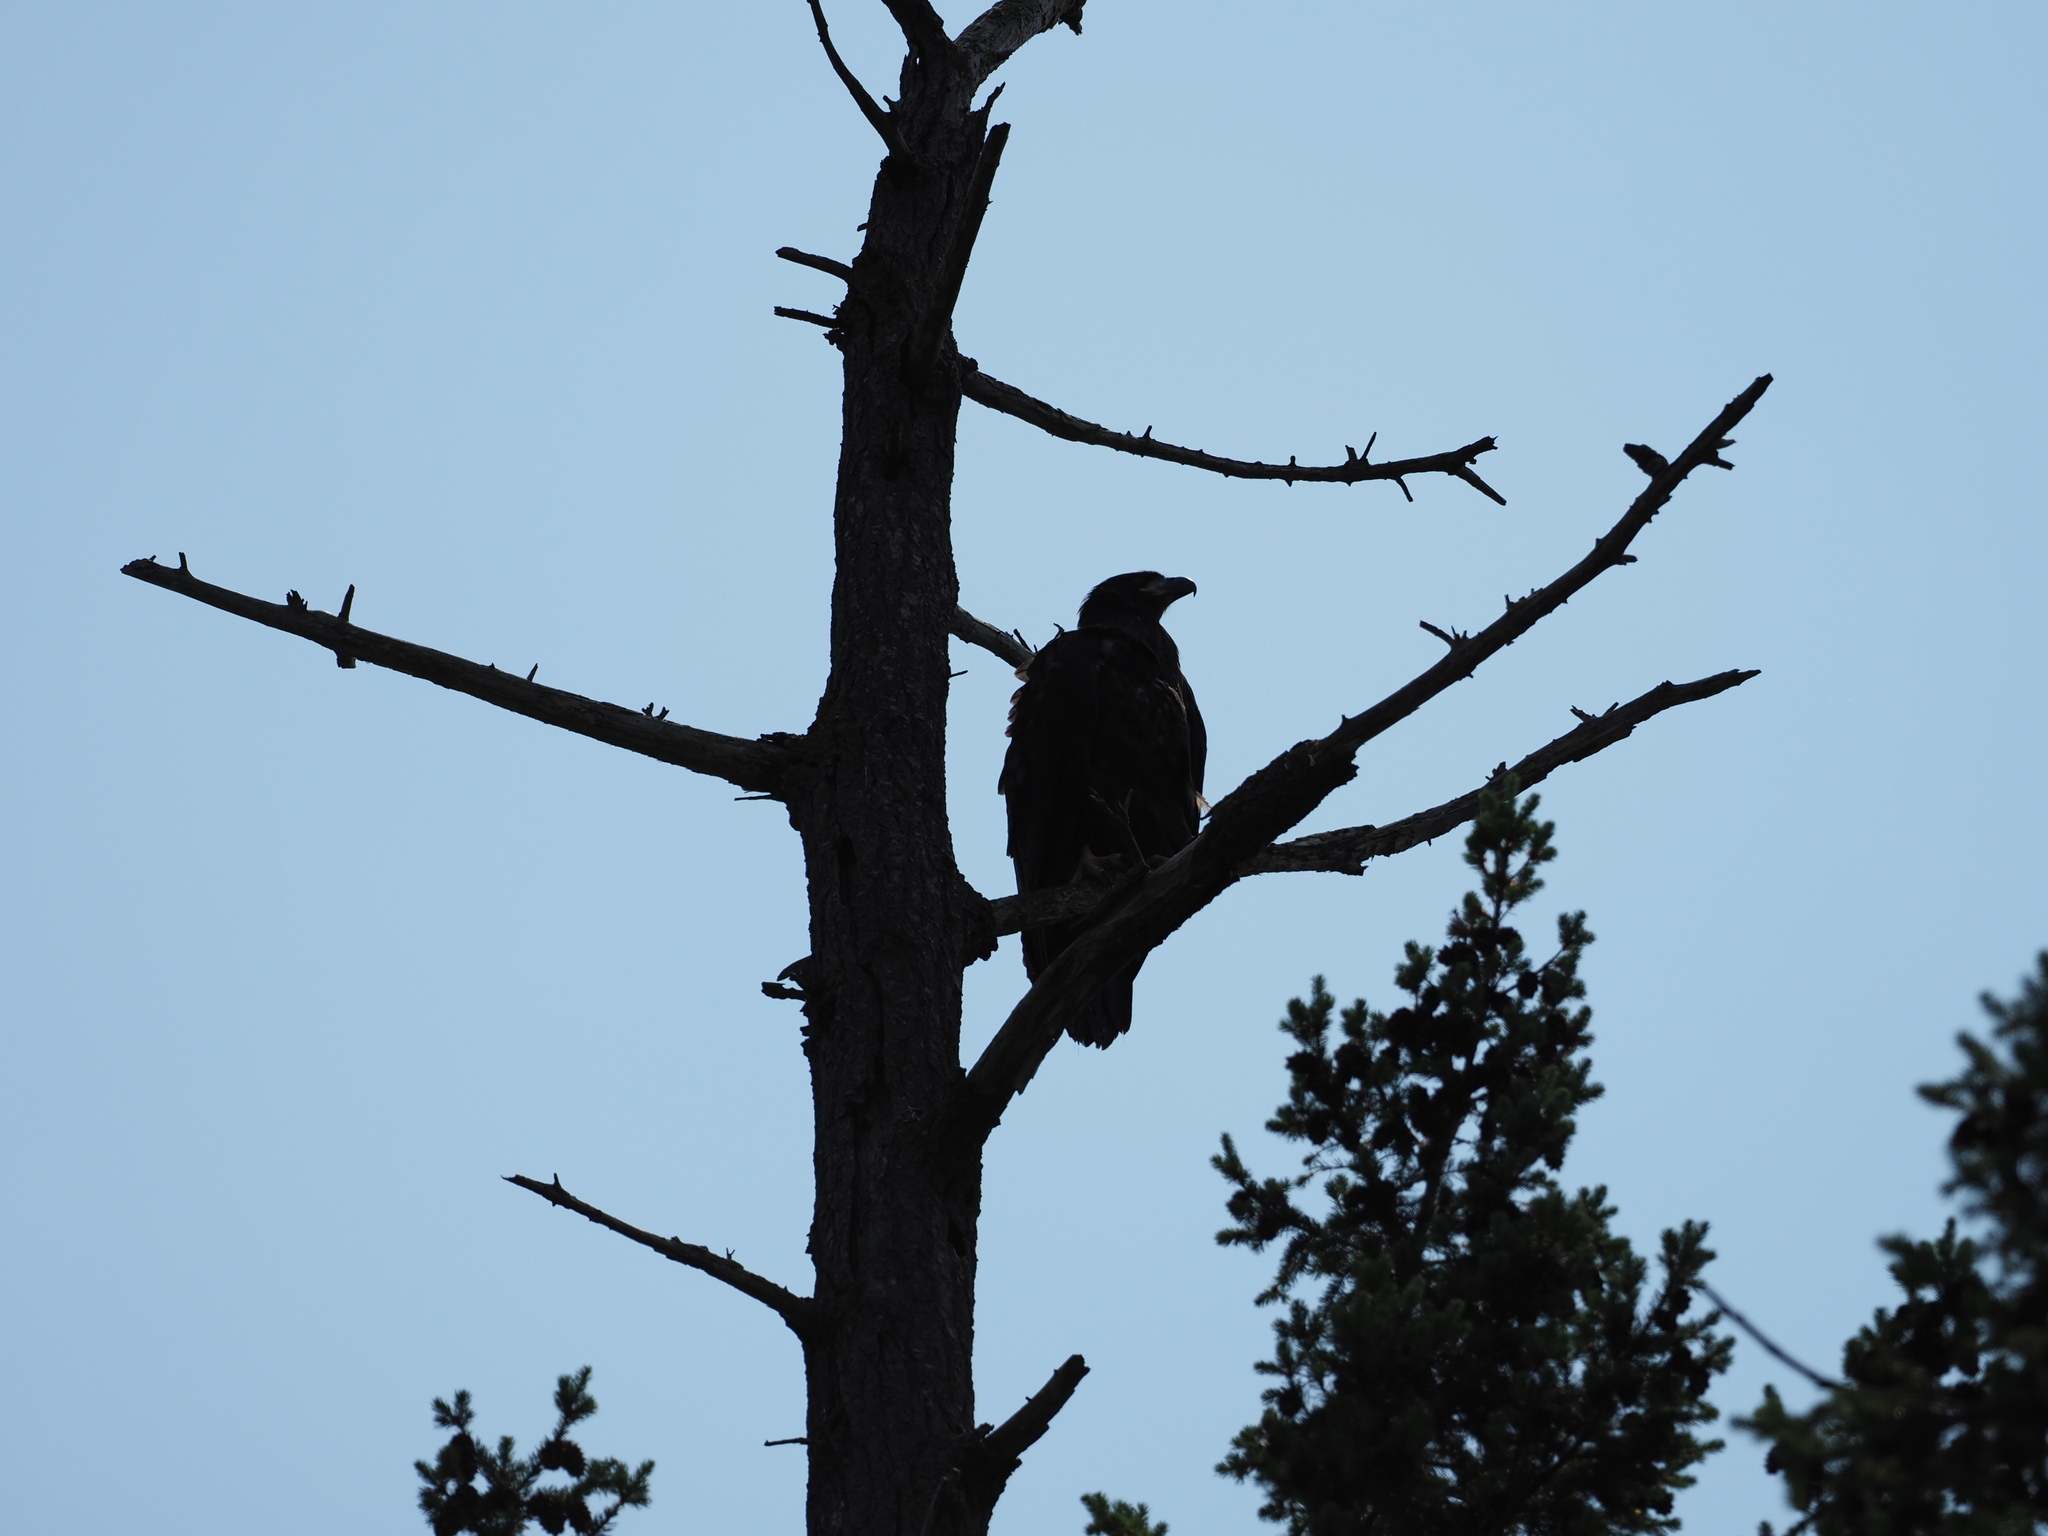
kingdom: Animalia
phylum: Chordata
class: Aves
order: Accipitriformes
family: Accipitridae
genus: Haliaeetus
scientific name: Haliaeetus leucocephalus
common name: Bald eagle
